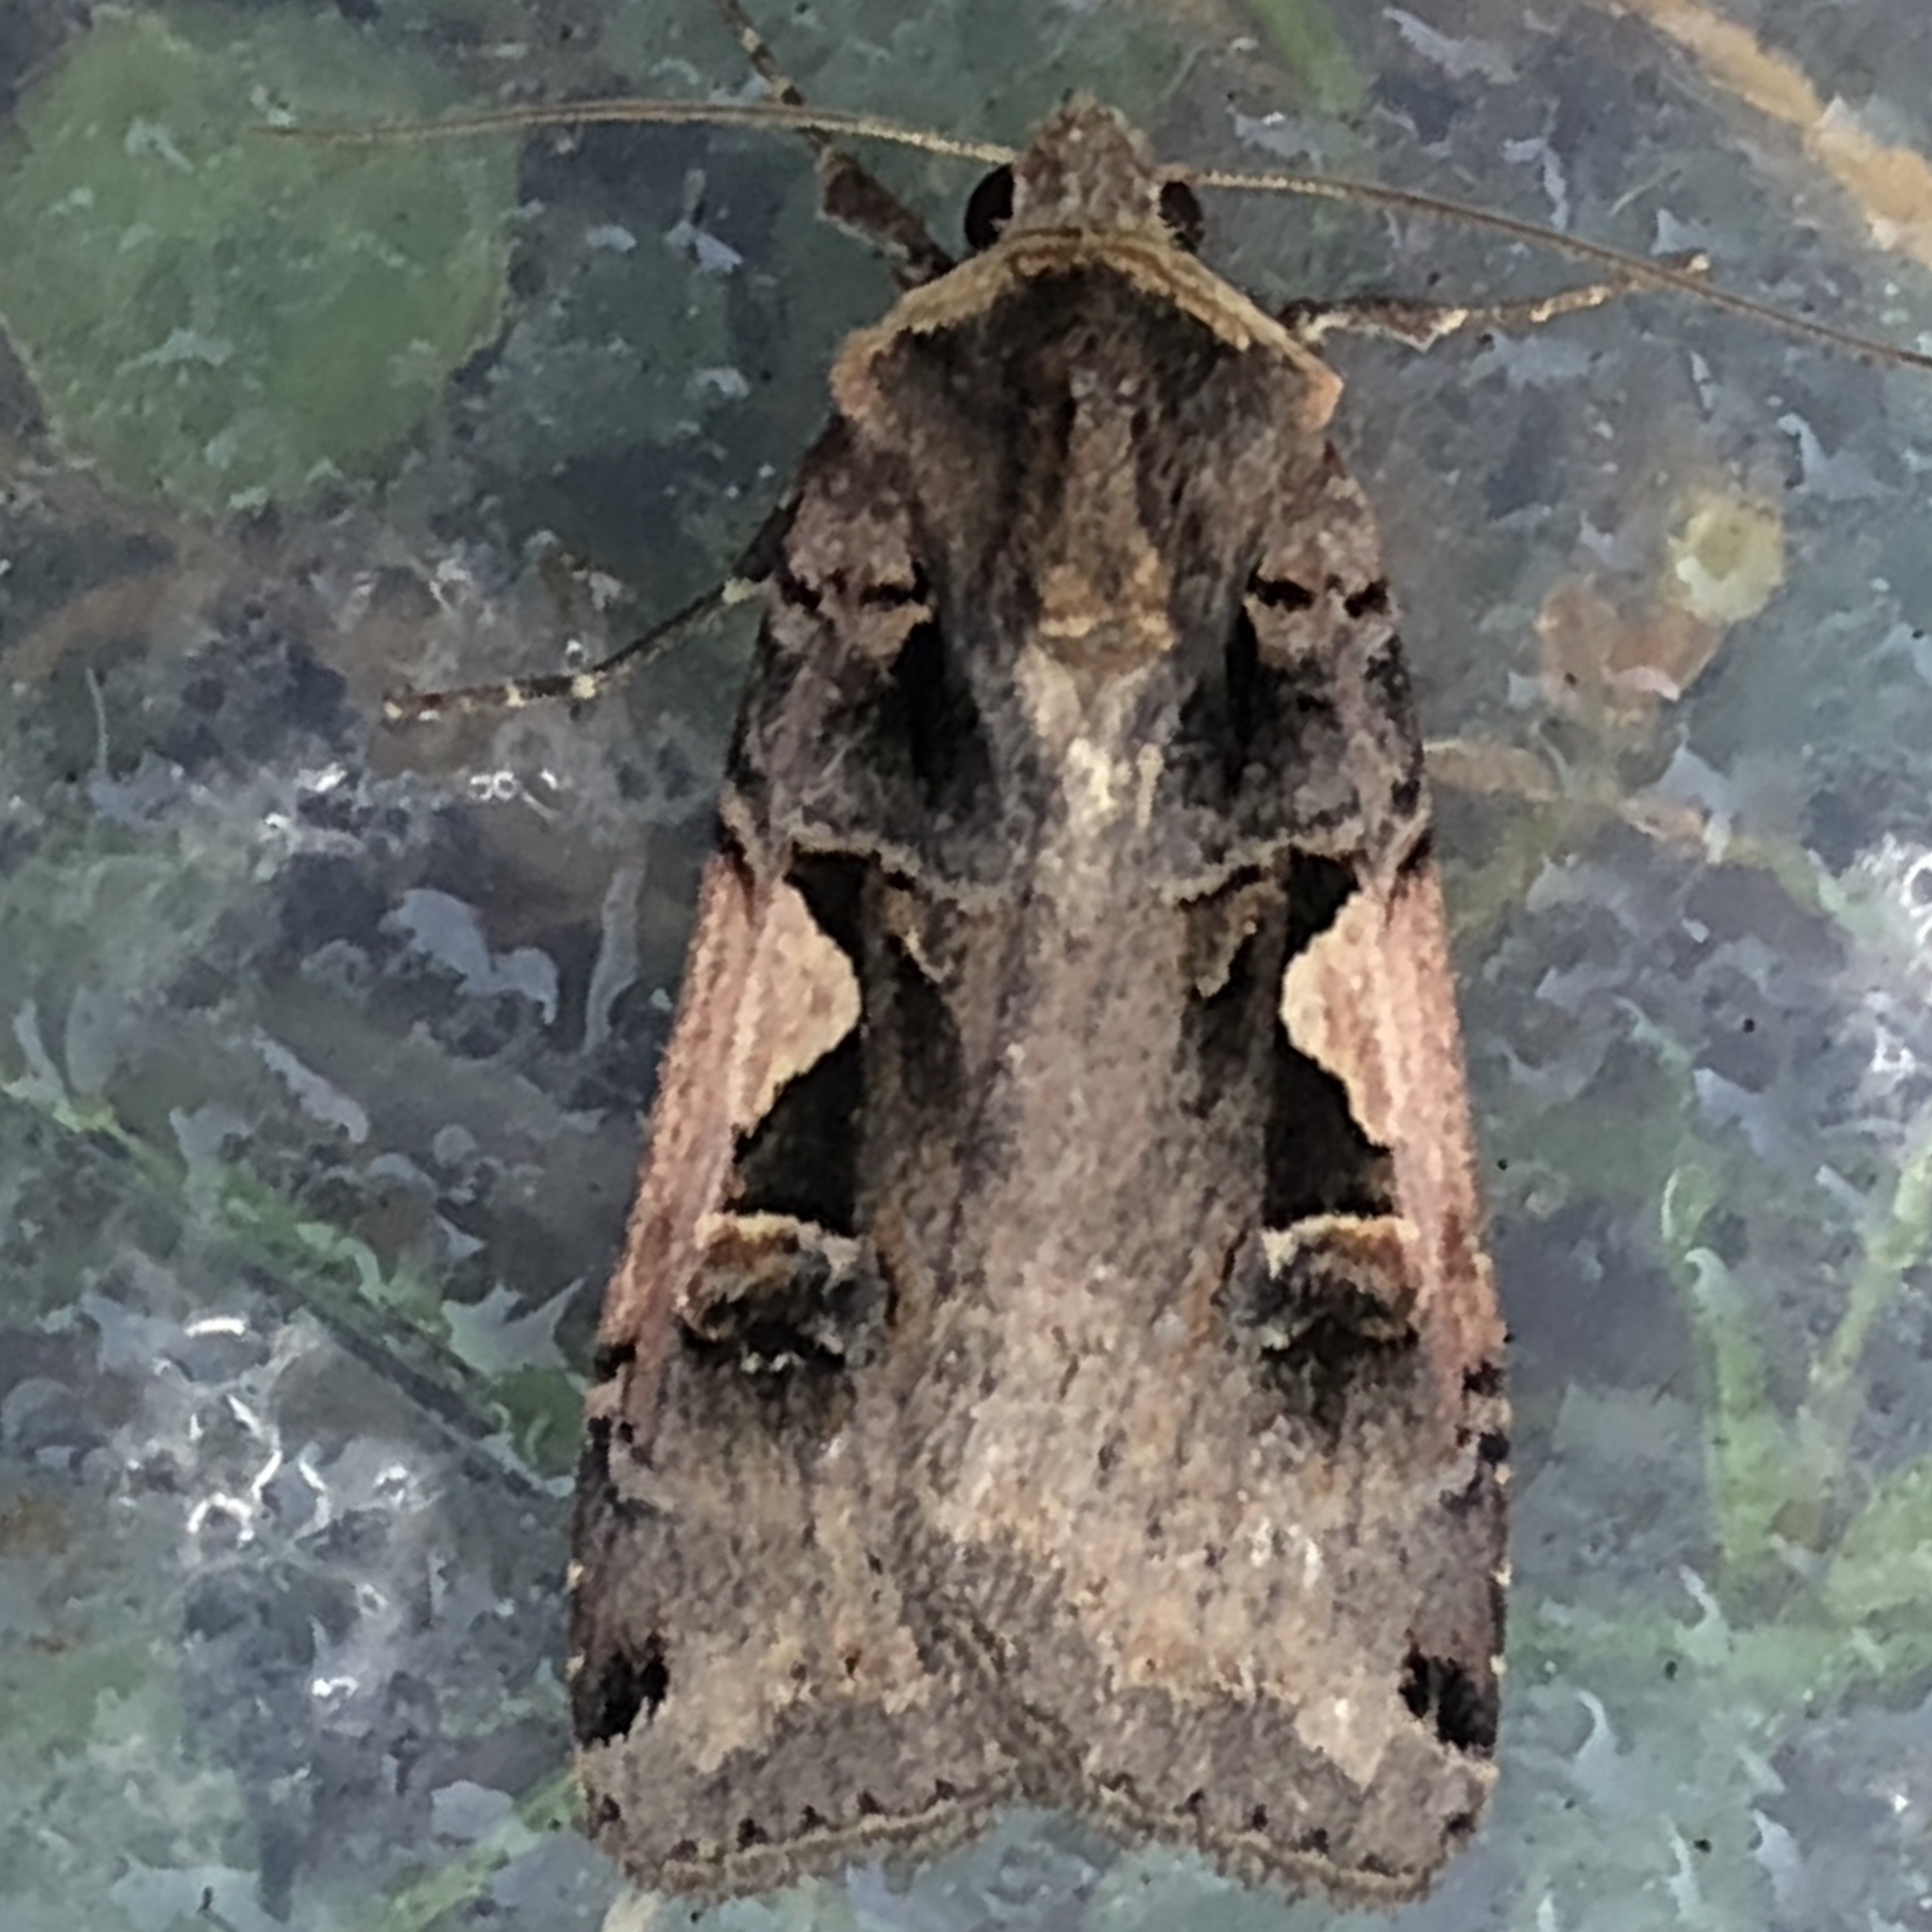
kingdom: Animalia
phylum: Arthropoda
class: Insecta
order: Lepidoptera
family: Noctuidae
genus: Xestia
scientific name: Xestia c-nigrum
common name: Setaceous hebrew character
